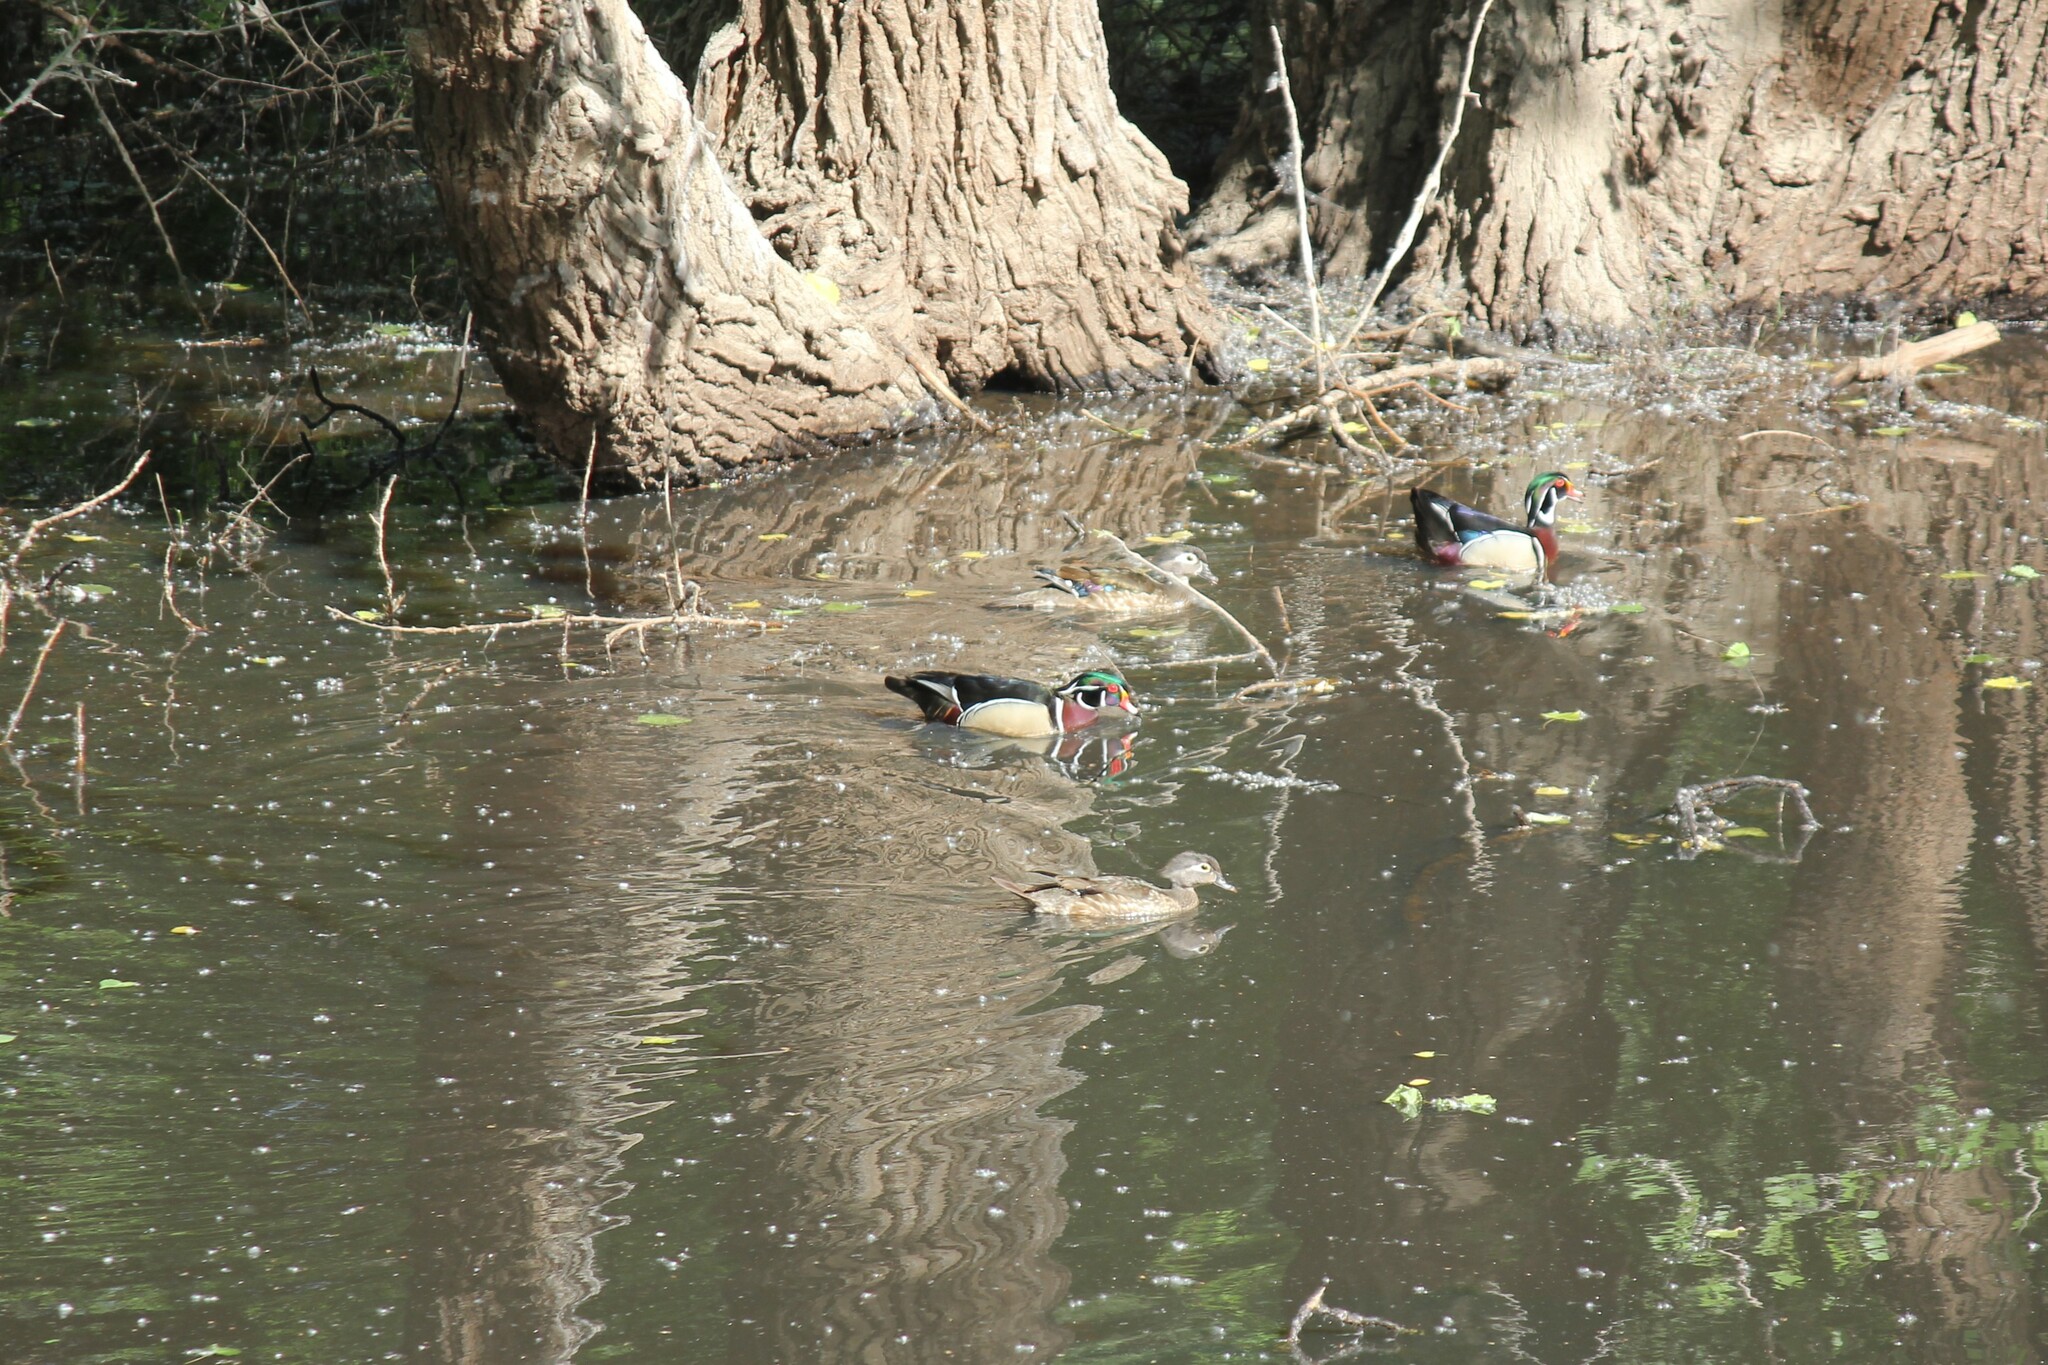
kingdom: Animalia
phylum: Chordata
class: Aves
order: Anseriformes
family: Anatidae
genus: Aix
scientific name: Aix sponsa
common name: Wood duck
